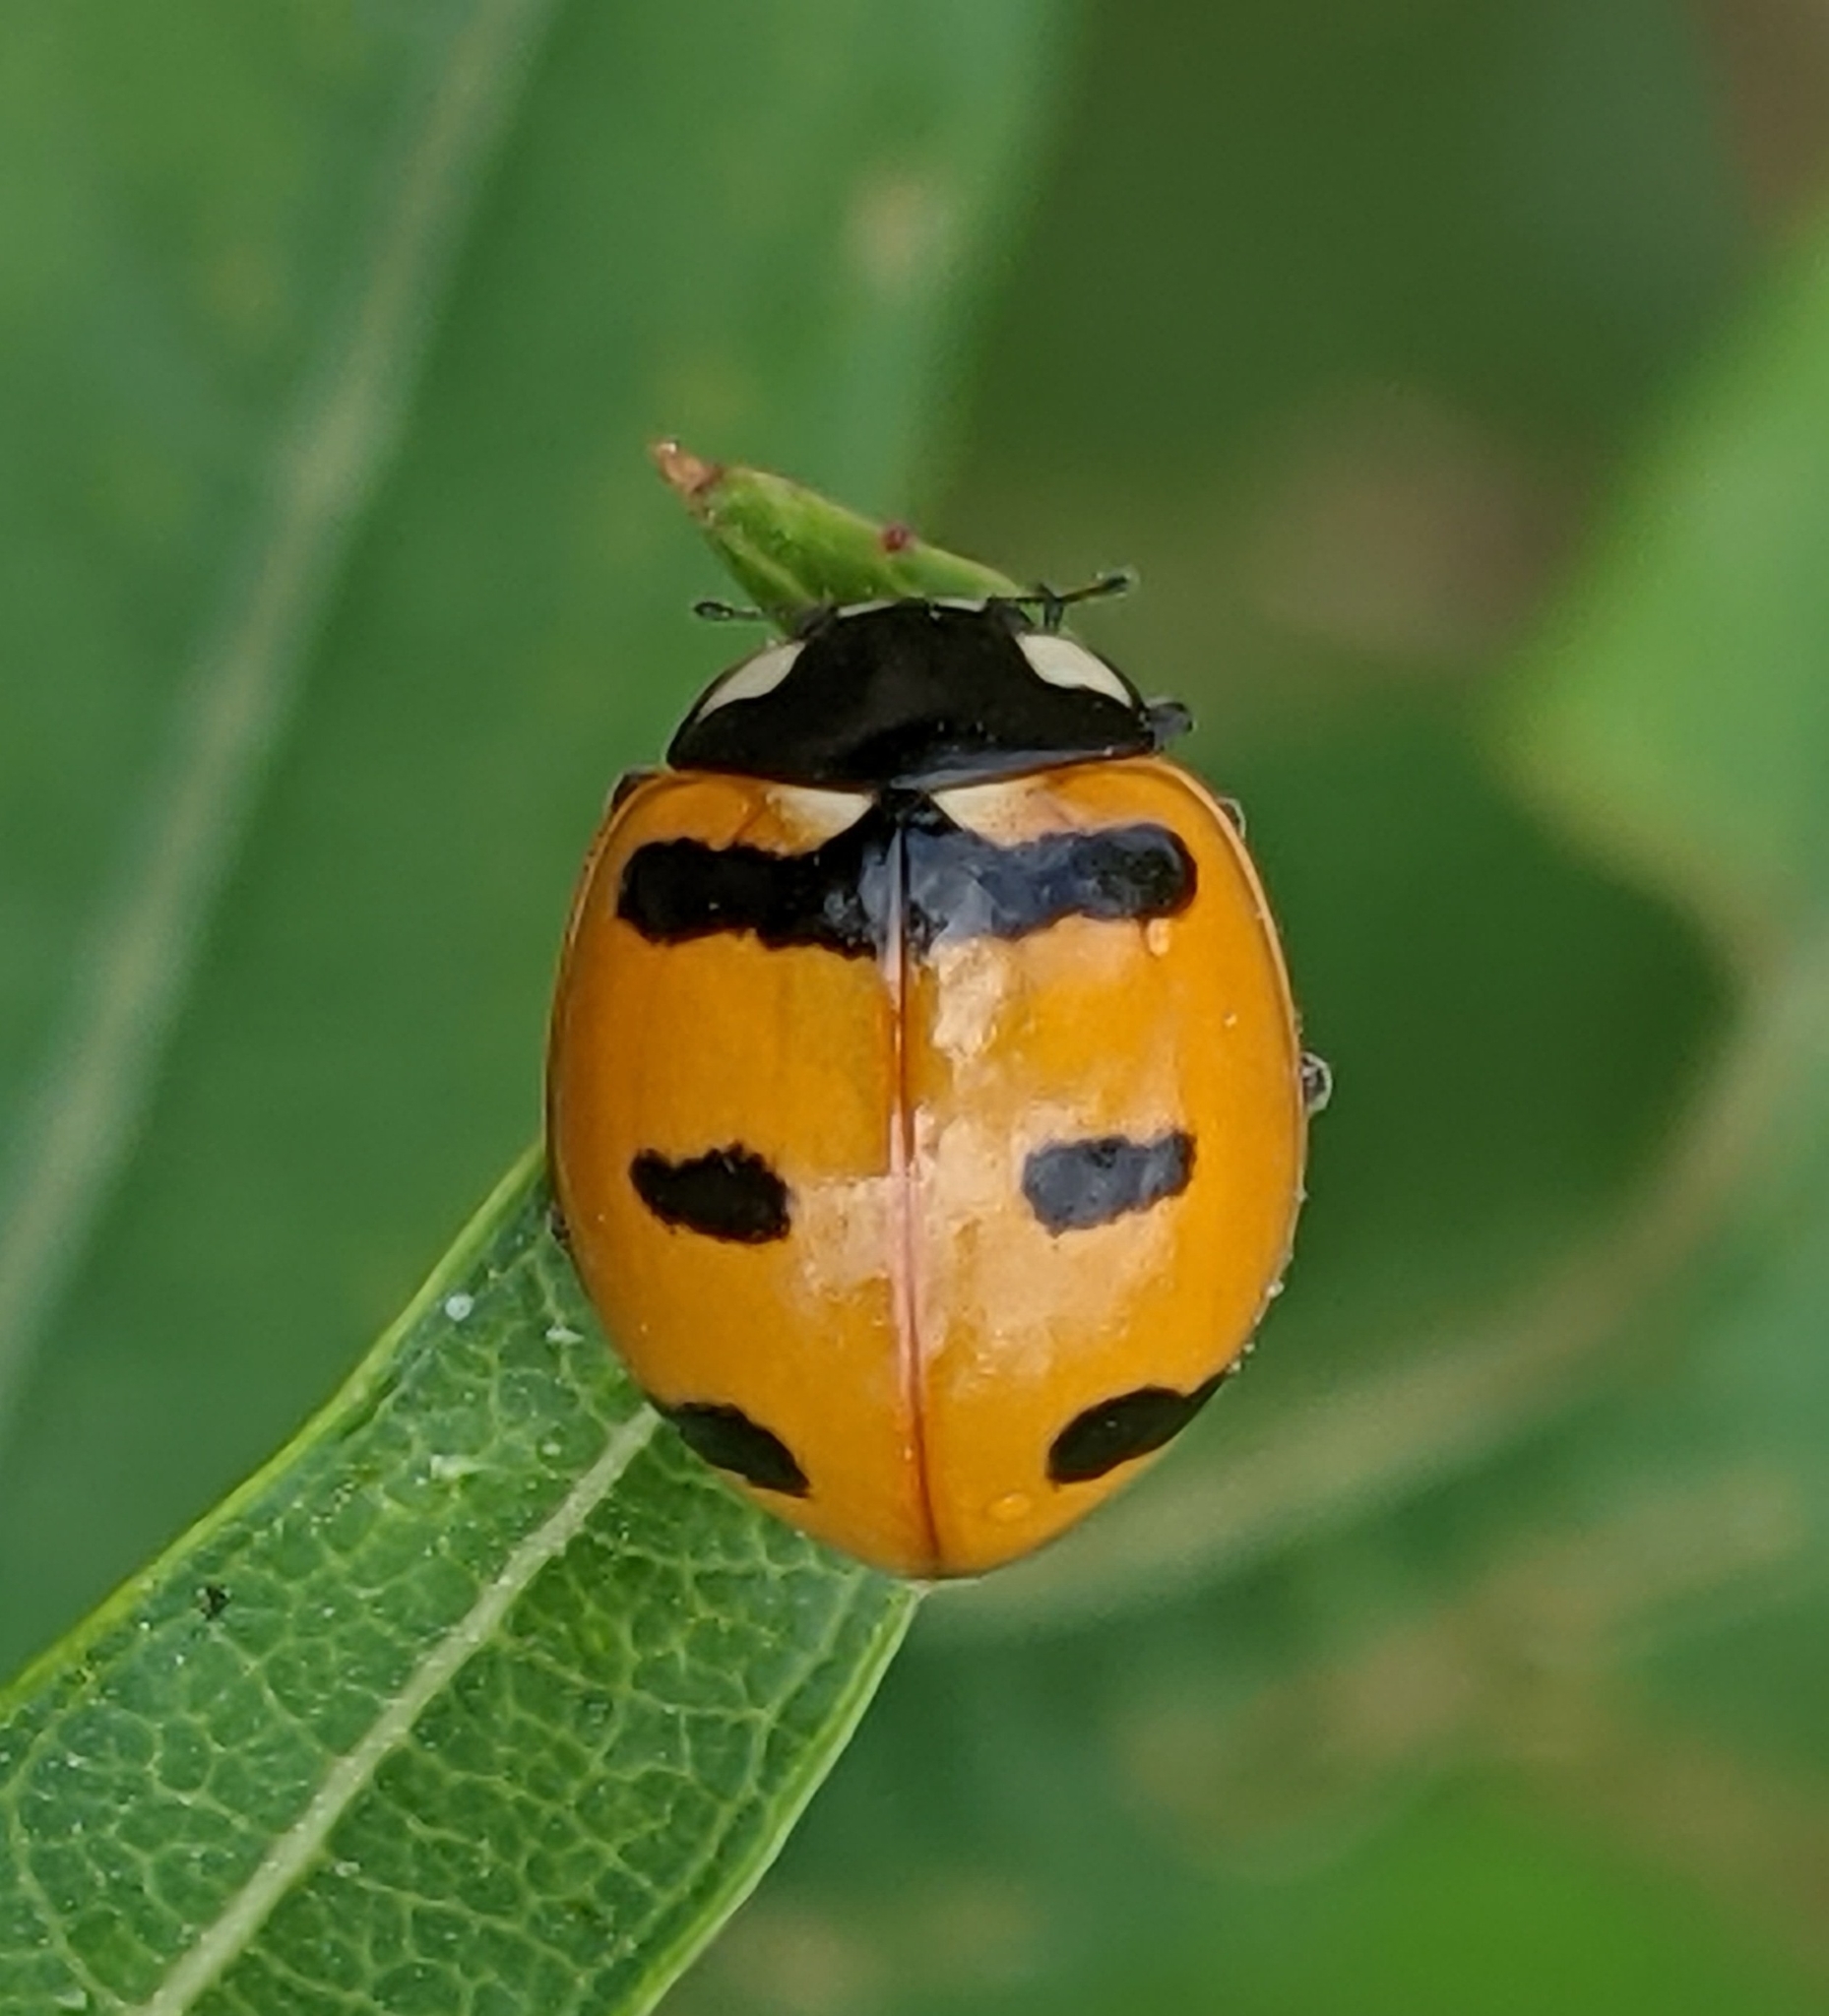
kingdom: Animalia
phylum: Arthropoda
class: Insecta
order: Coleoptera
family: Coccinellidae
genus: Coccinella
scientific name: Coccinella transversoguttata
